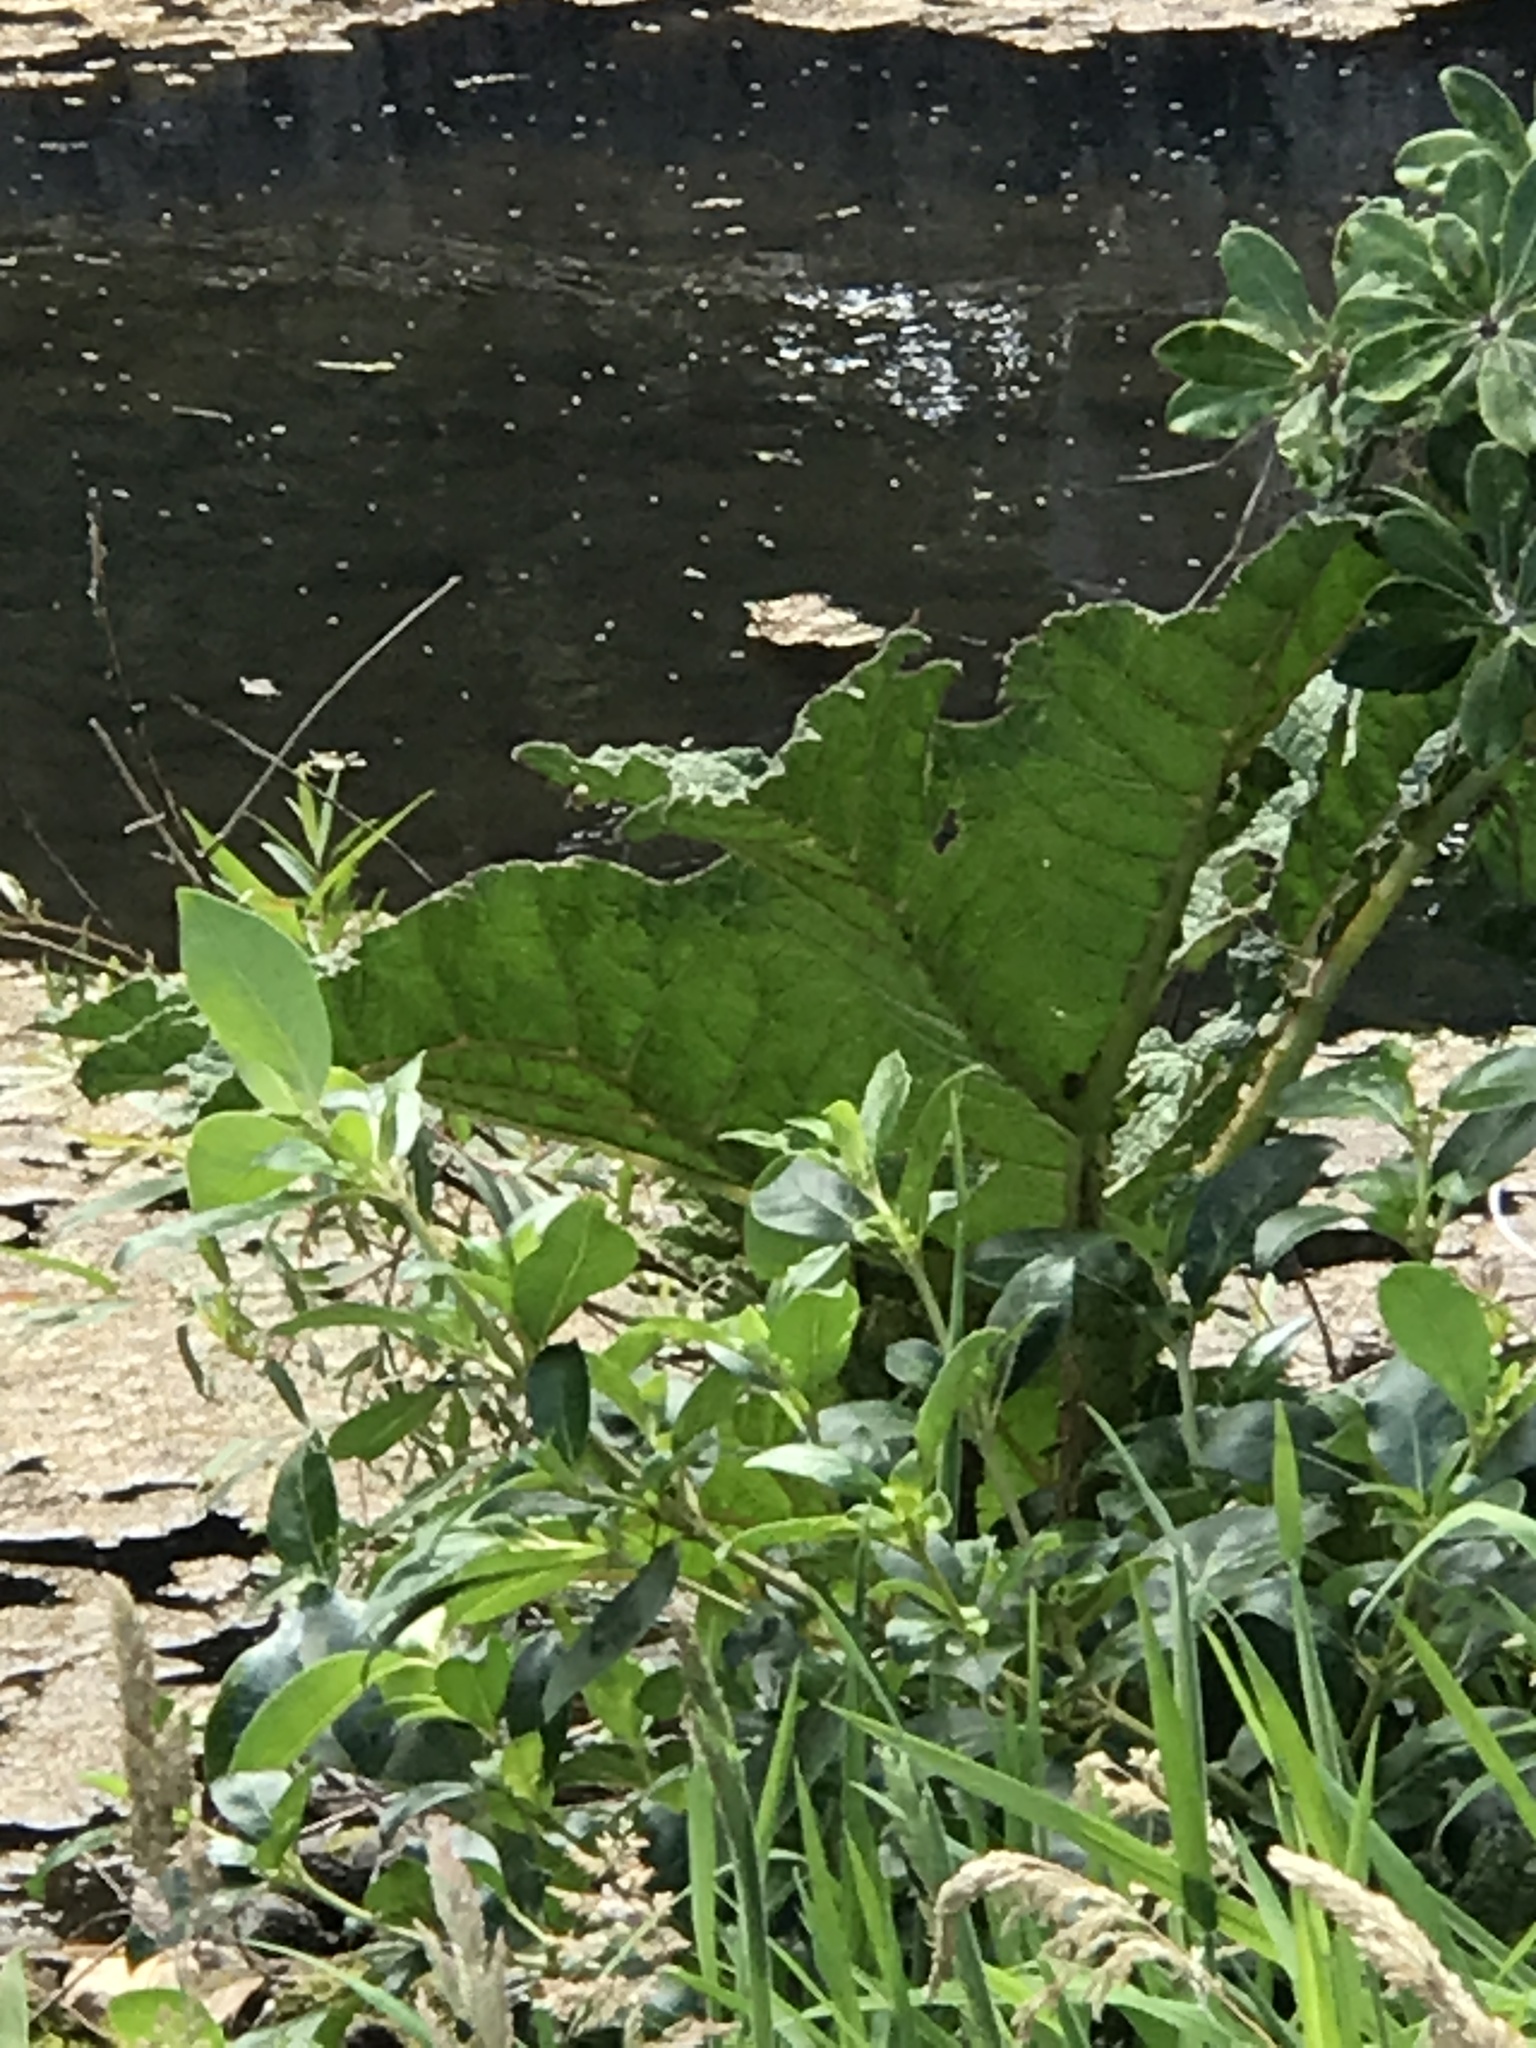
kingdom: Plantae
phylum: Tracheophyta
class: Magnoliopsida
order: Gunnerales
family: Gunneraceae
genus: Gunnera
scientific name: Gunnera tinctoria
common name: Giant-rhubarb
